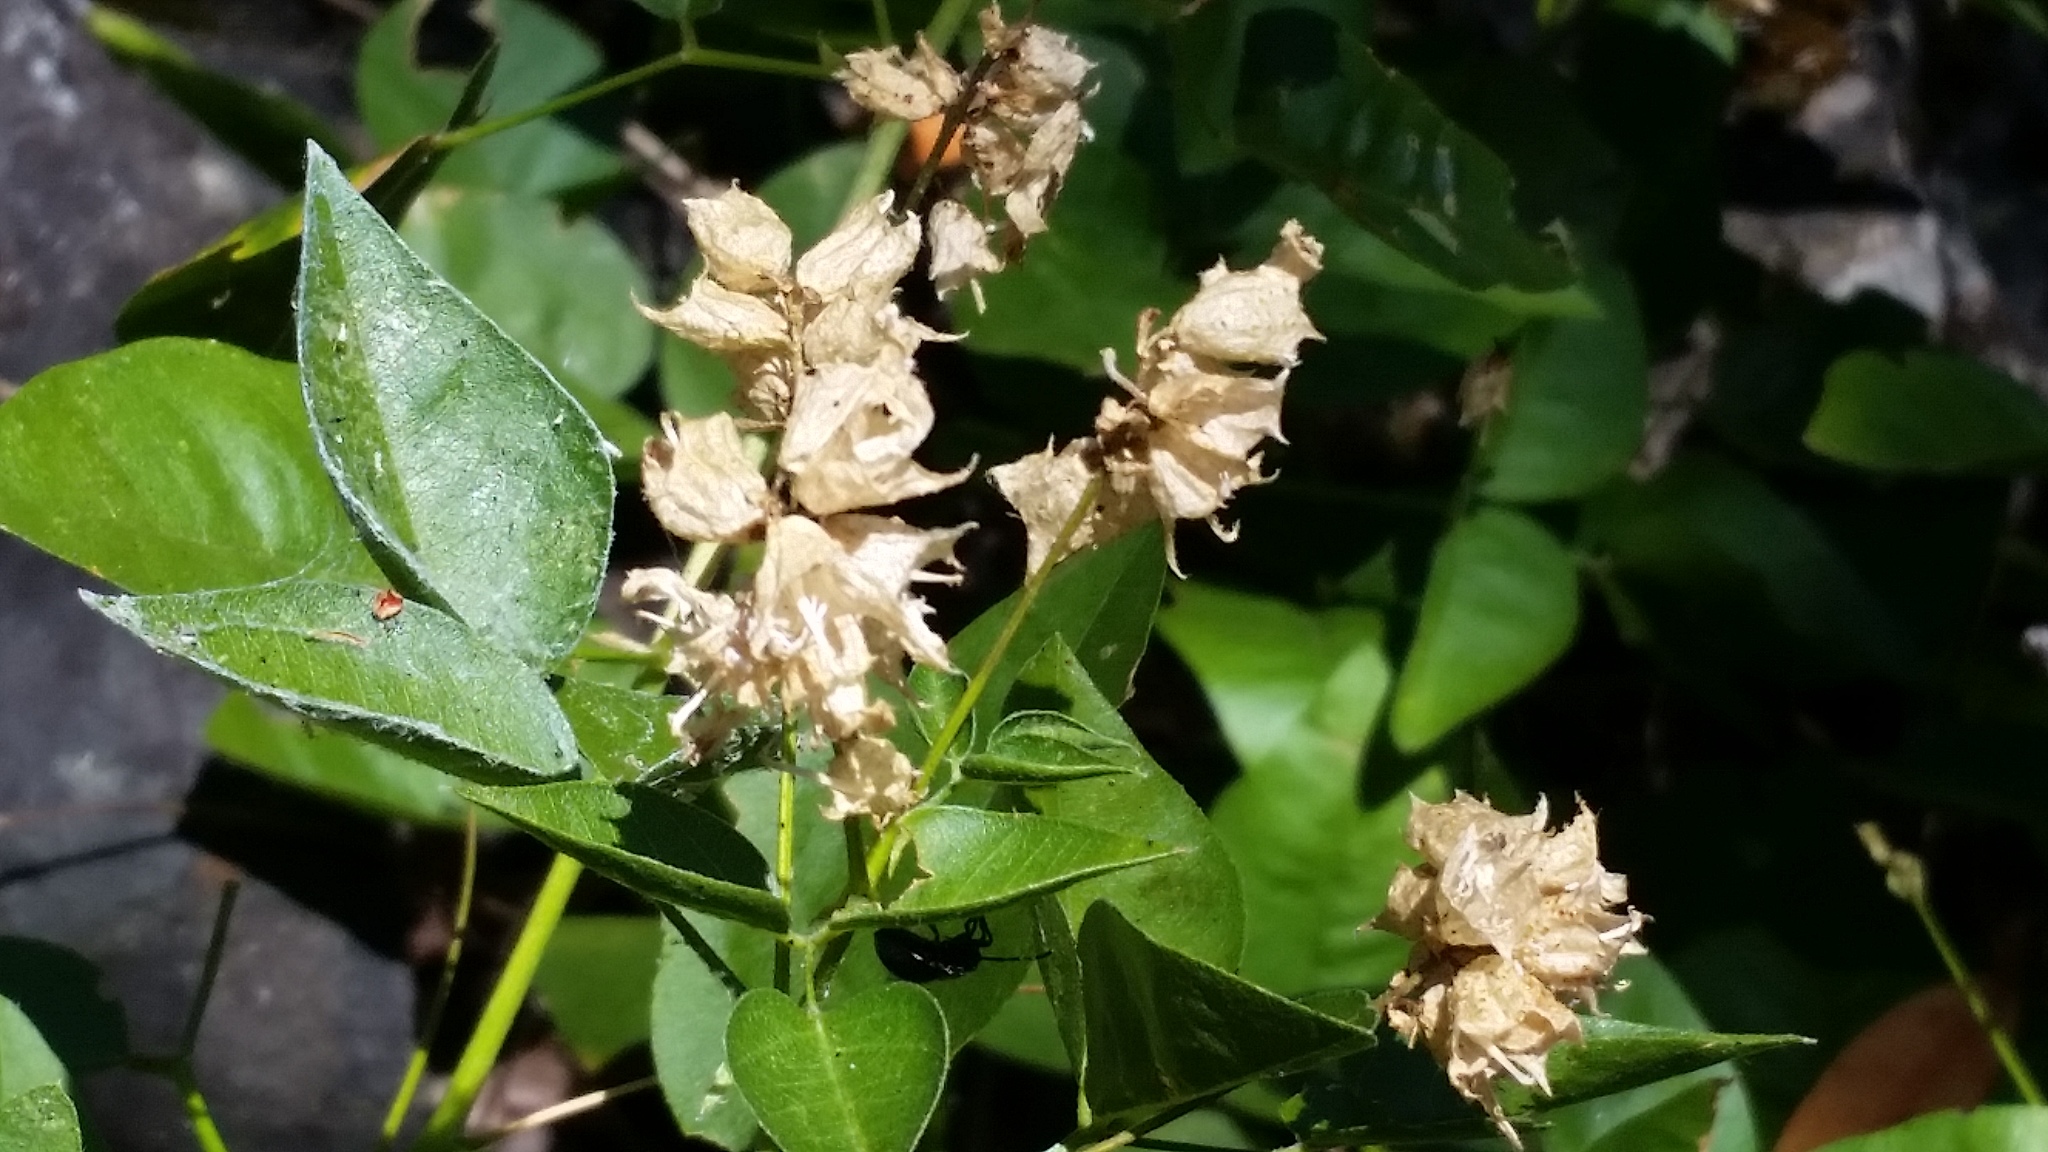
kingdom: Plantae
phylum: Tracheophyta
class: Magnoliopsida
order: Fabales
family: Fabaceae
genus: Rupertia
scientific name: Rupertia physodes
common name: California-tea
